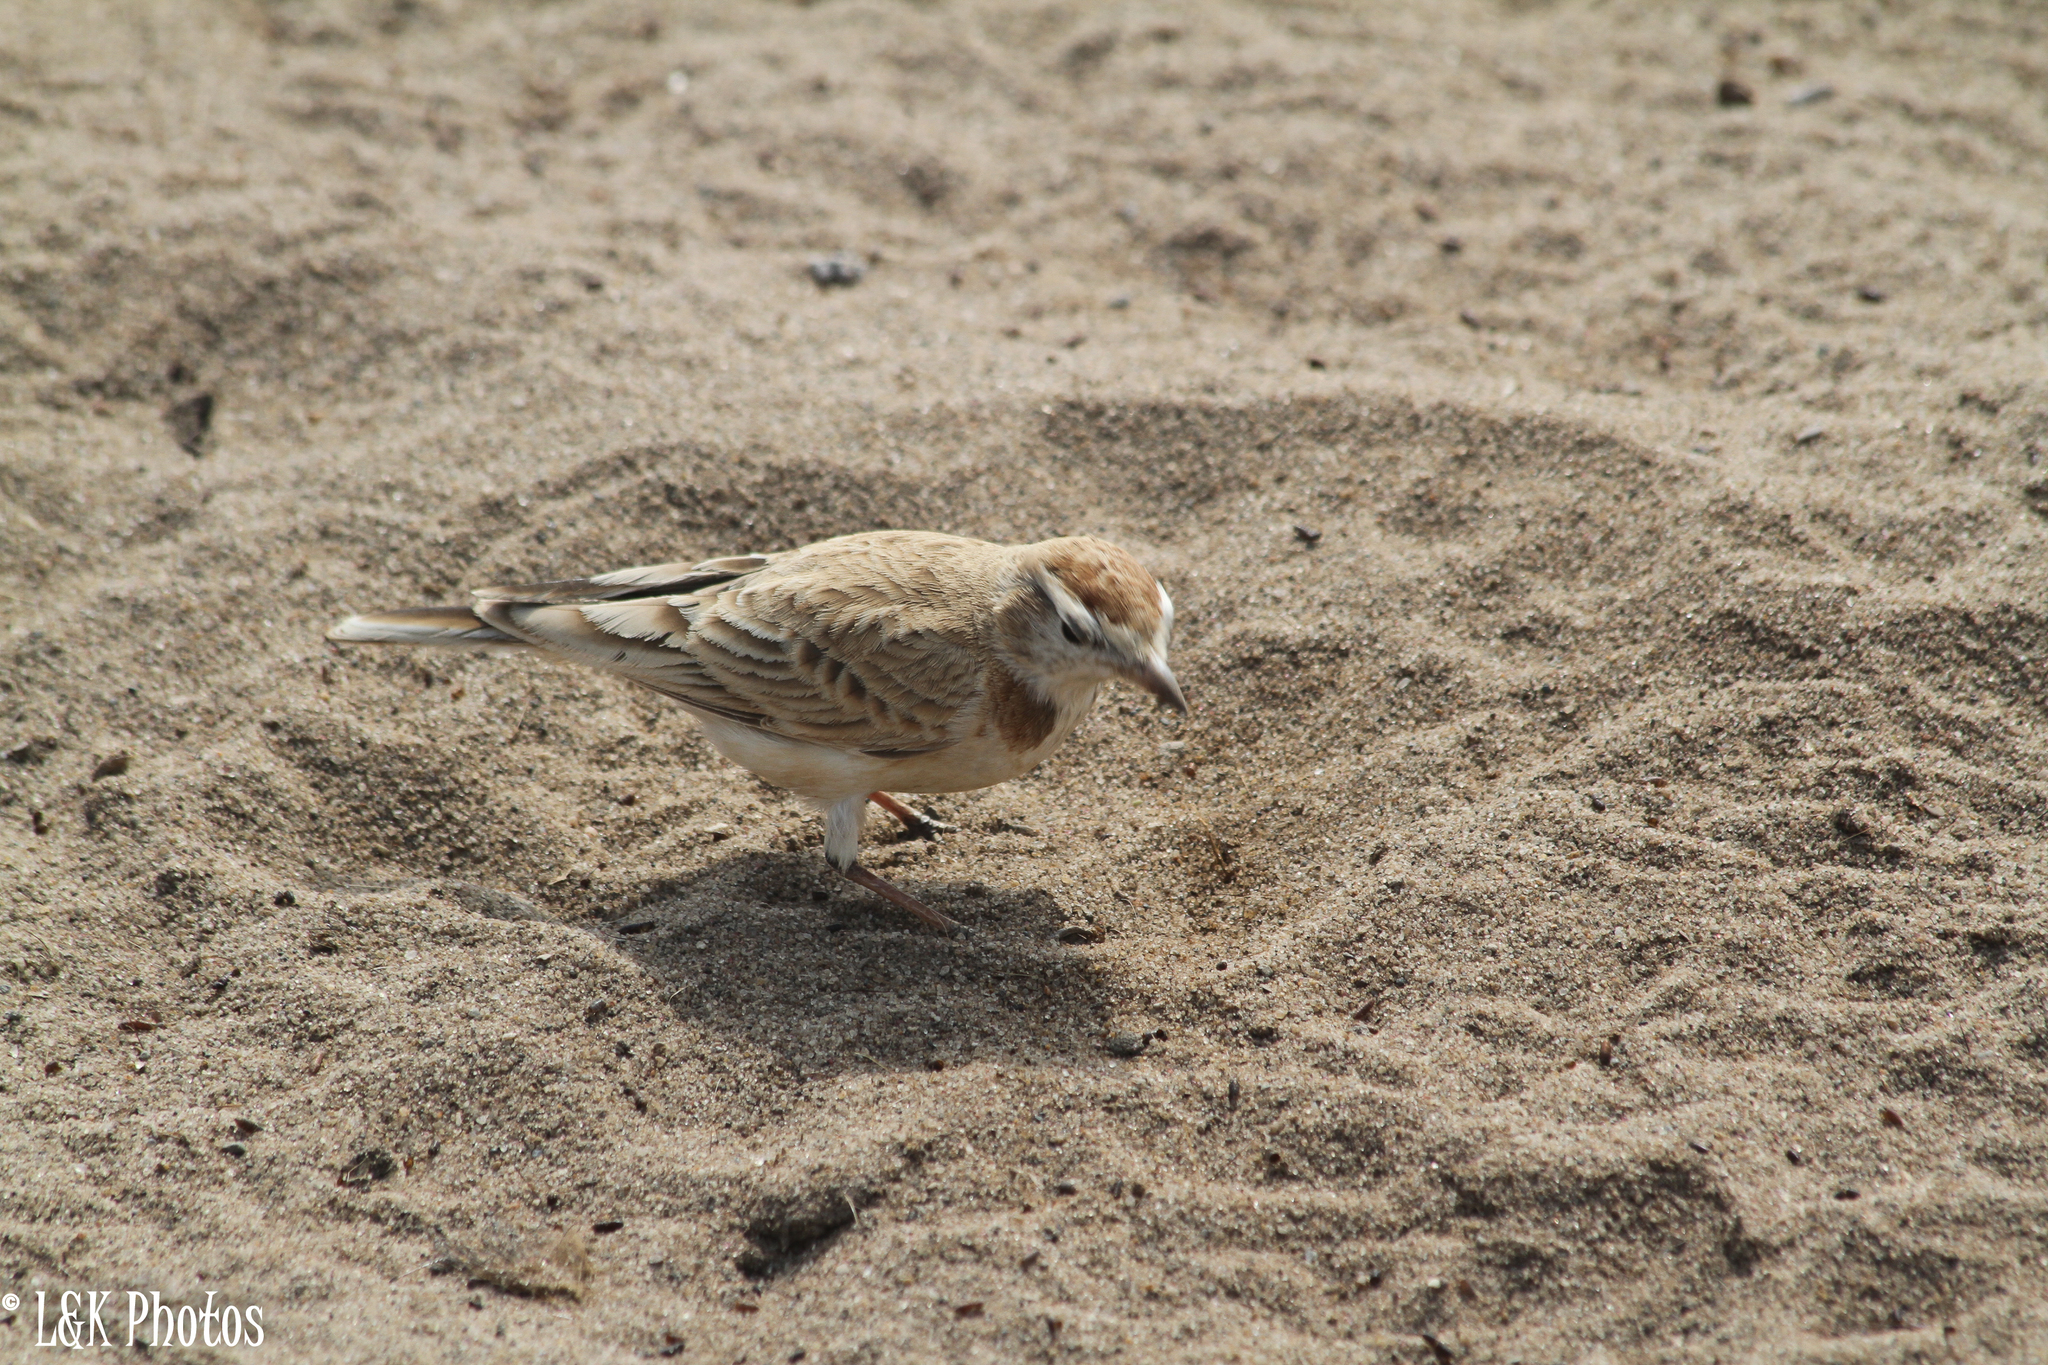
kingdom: Animalia
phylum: Chordata
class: Aves
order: Passeriformes
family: Alaudidae
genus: Calandrella
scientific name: Calandrella cinerea
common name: Red-capped lark
